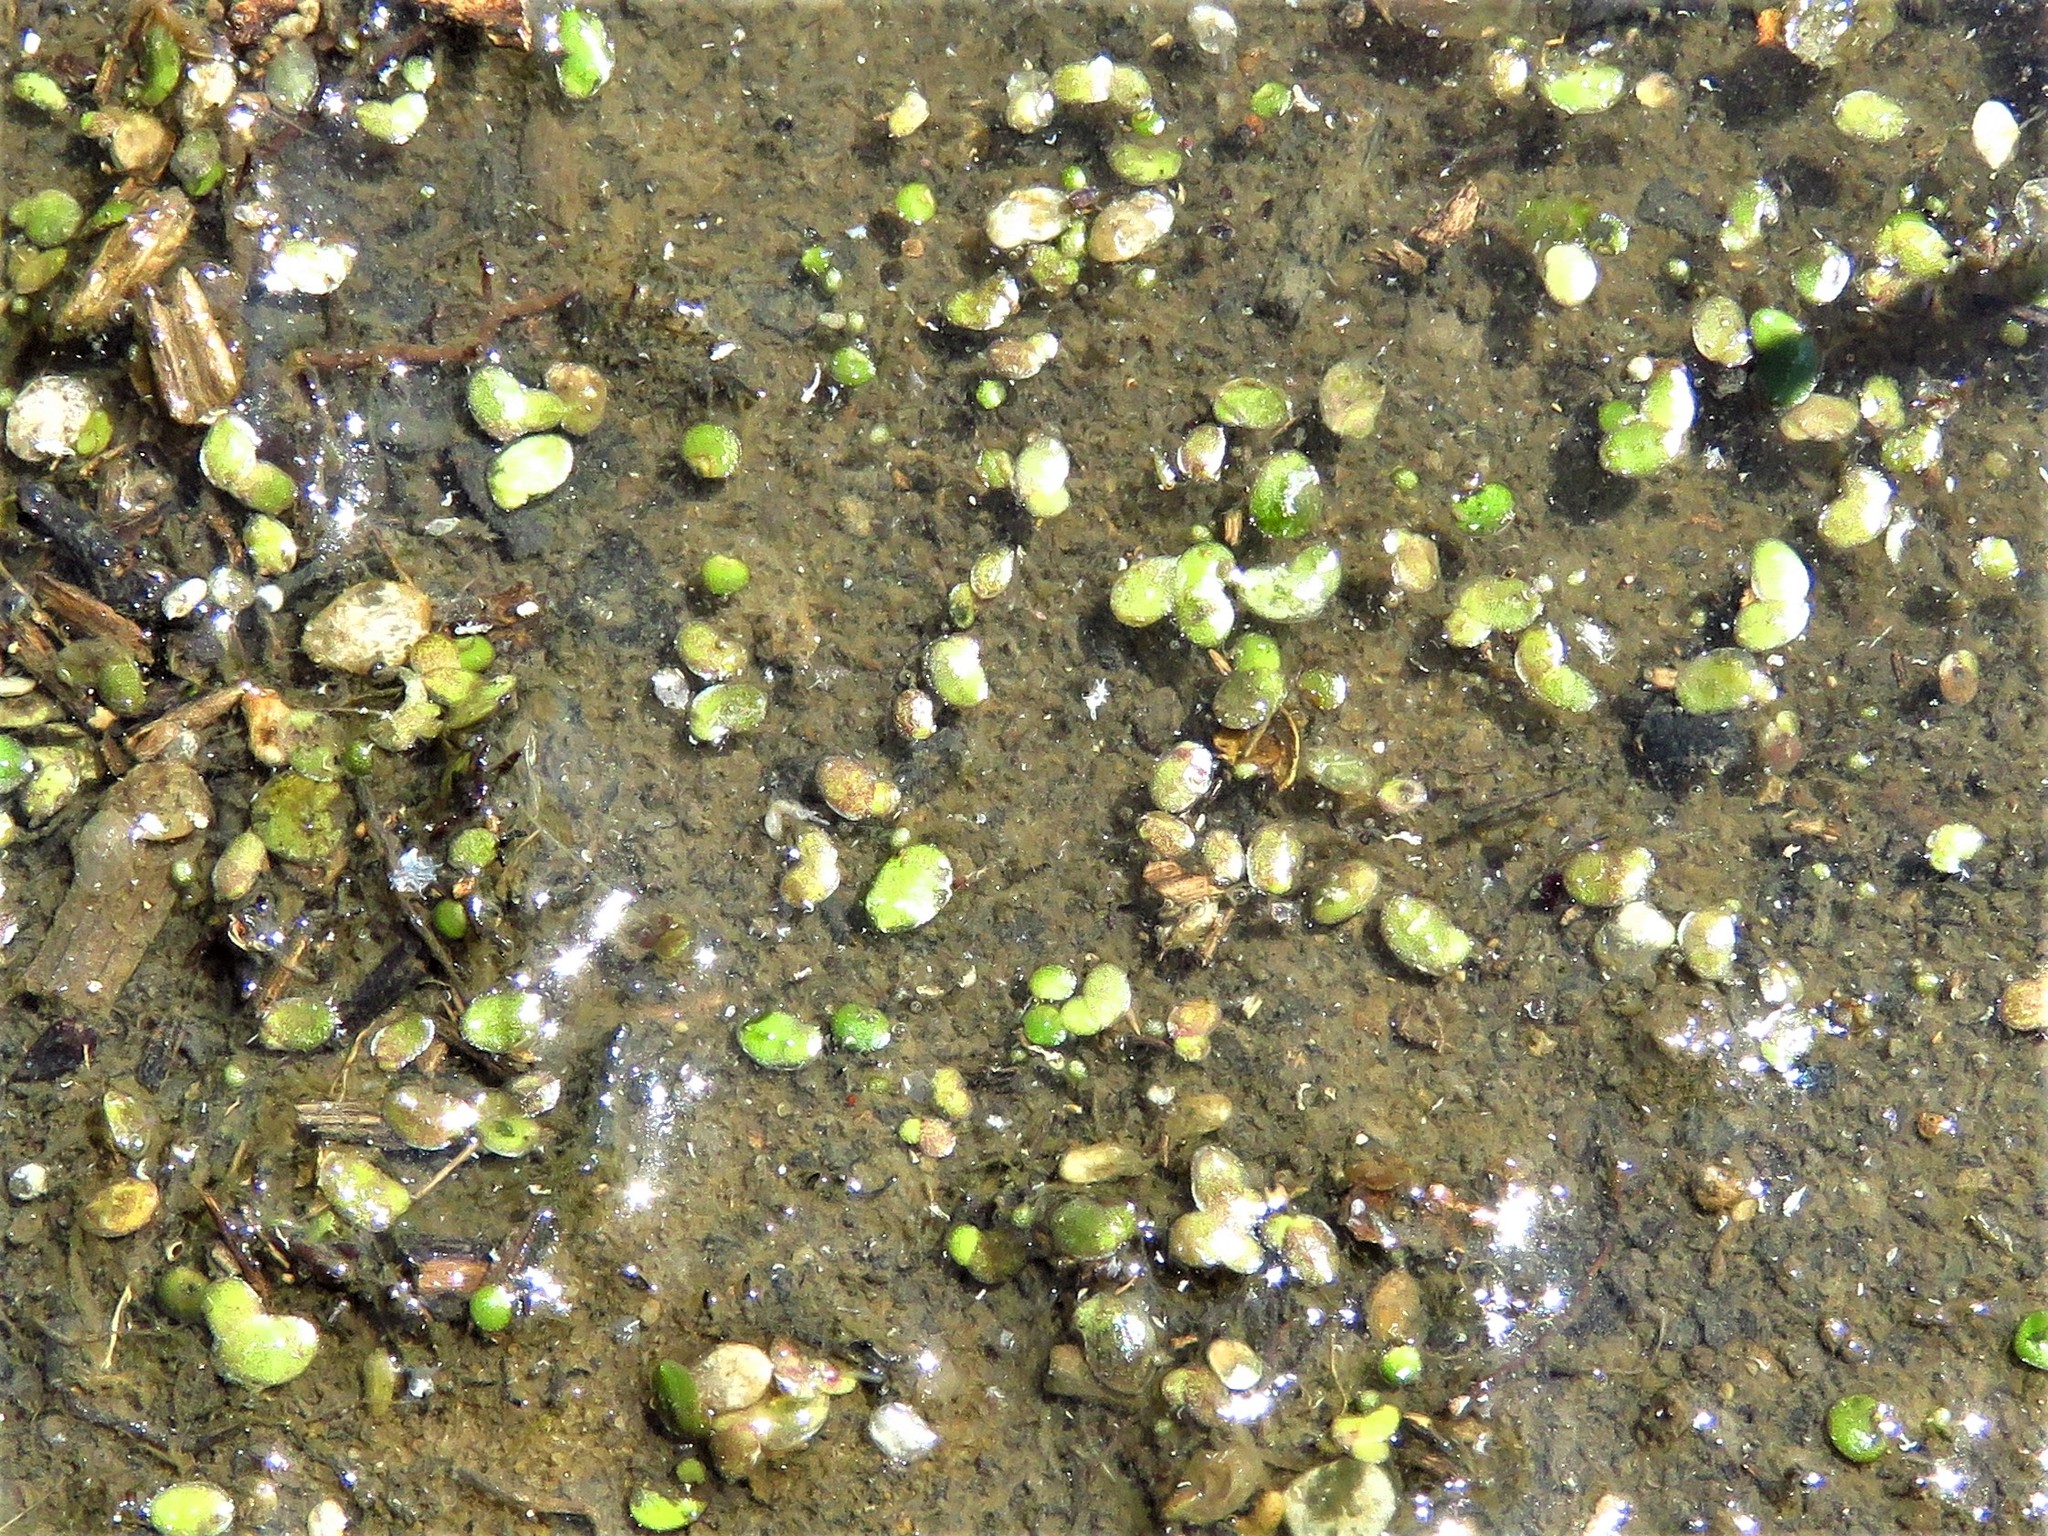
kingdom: Plantae
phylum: Tracheophyta
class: Liliopsida
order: Alismatales
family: Araceae
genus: Lemna
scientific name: Lemna
